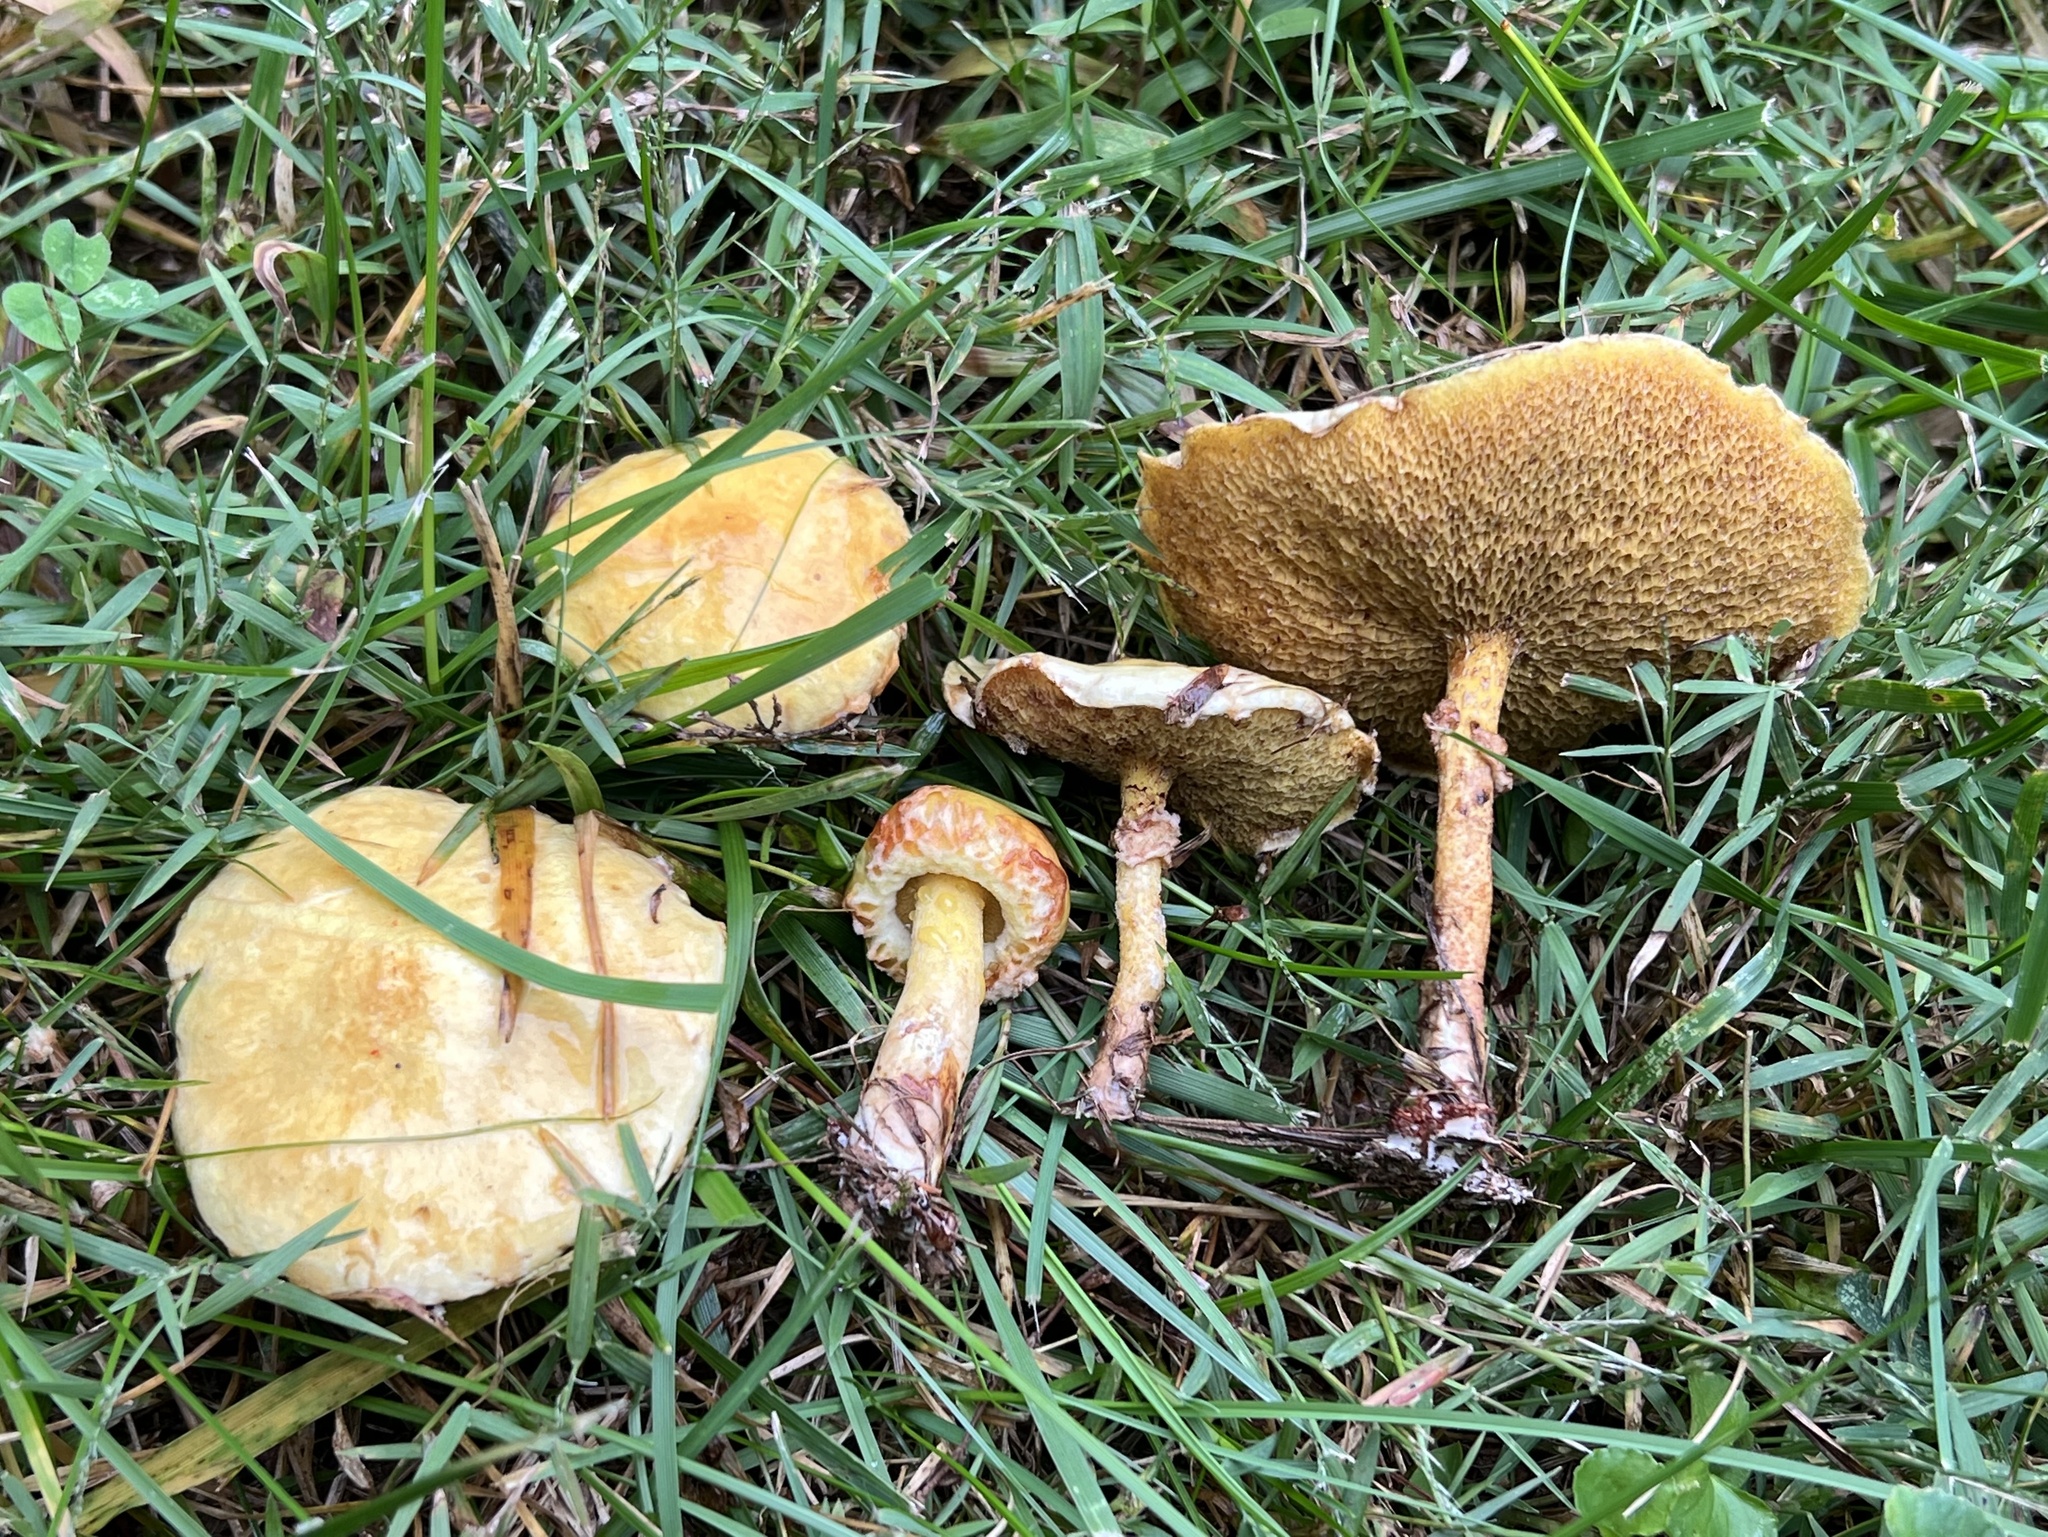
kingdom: Fungi
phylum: Basidiomycota
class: Agaricomycetes
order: Boletales
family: Suillaceae
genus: Suillus
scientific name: Suillus americanus
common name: Chicken fat mushroom
